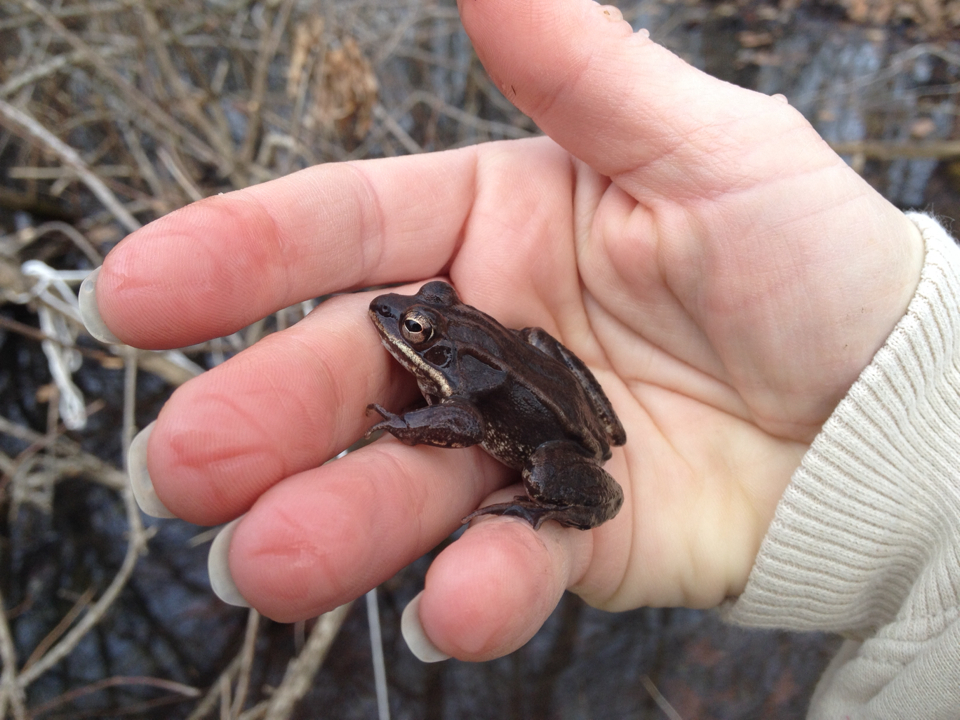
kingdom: Animalia
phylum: Chordata
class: Amphibia
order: Anura
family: Ranidae
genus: Lithobates
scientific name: Lithobates sylvaticus
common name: Wood frog
